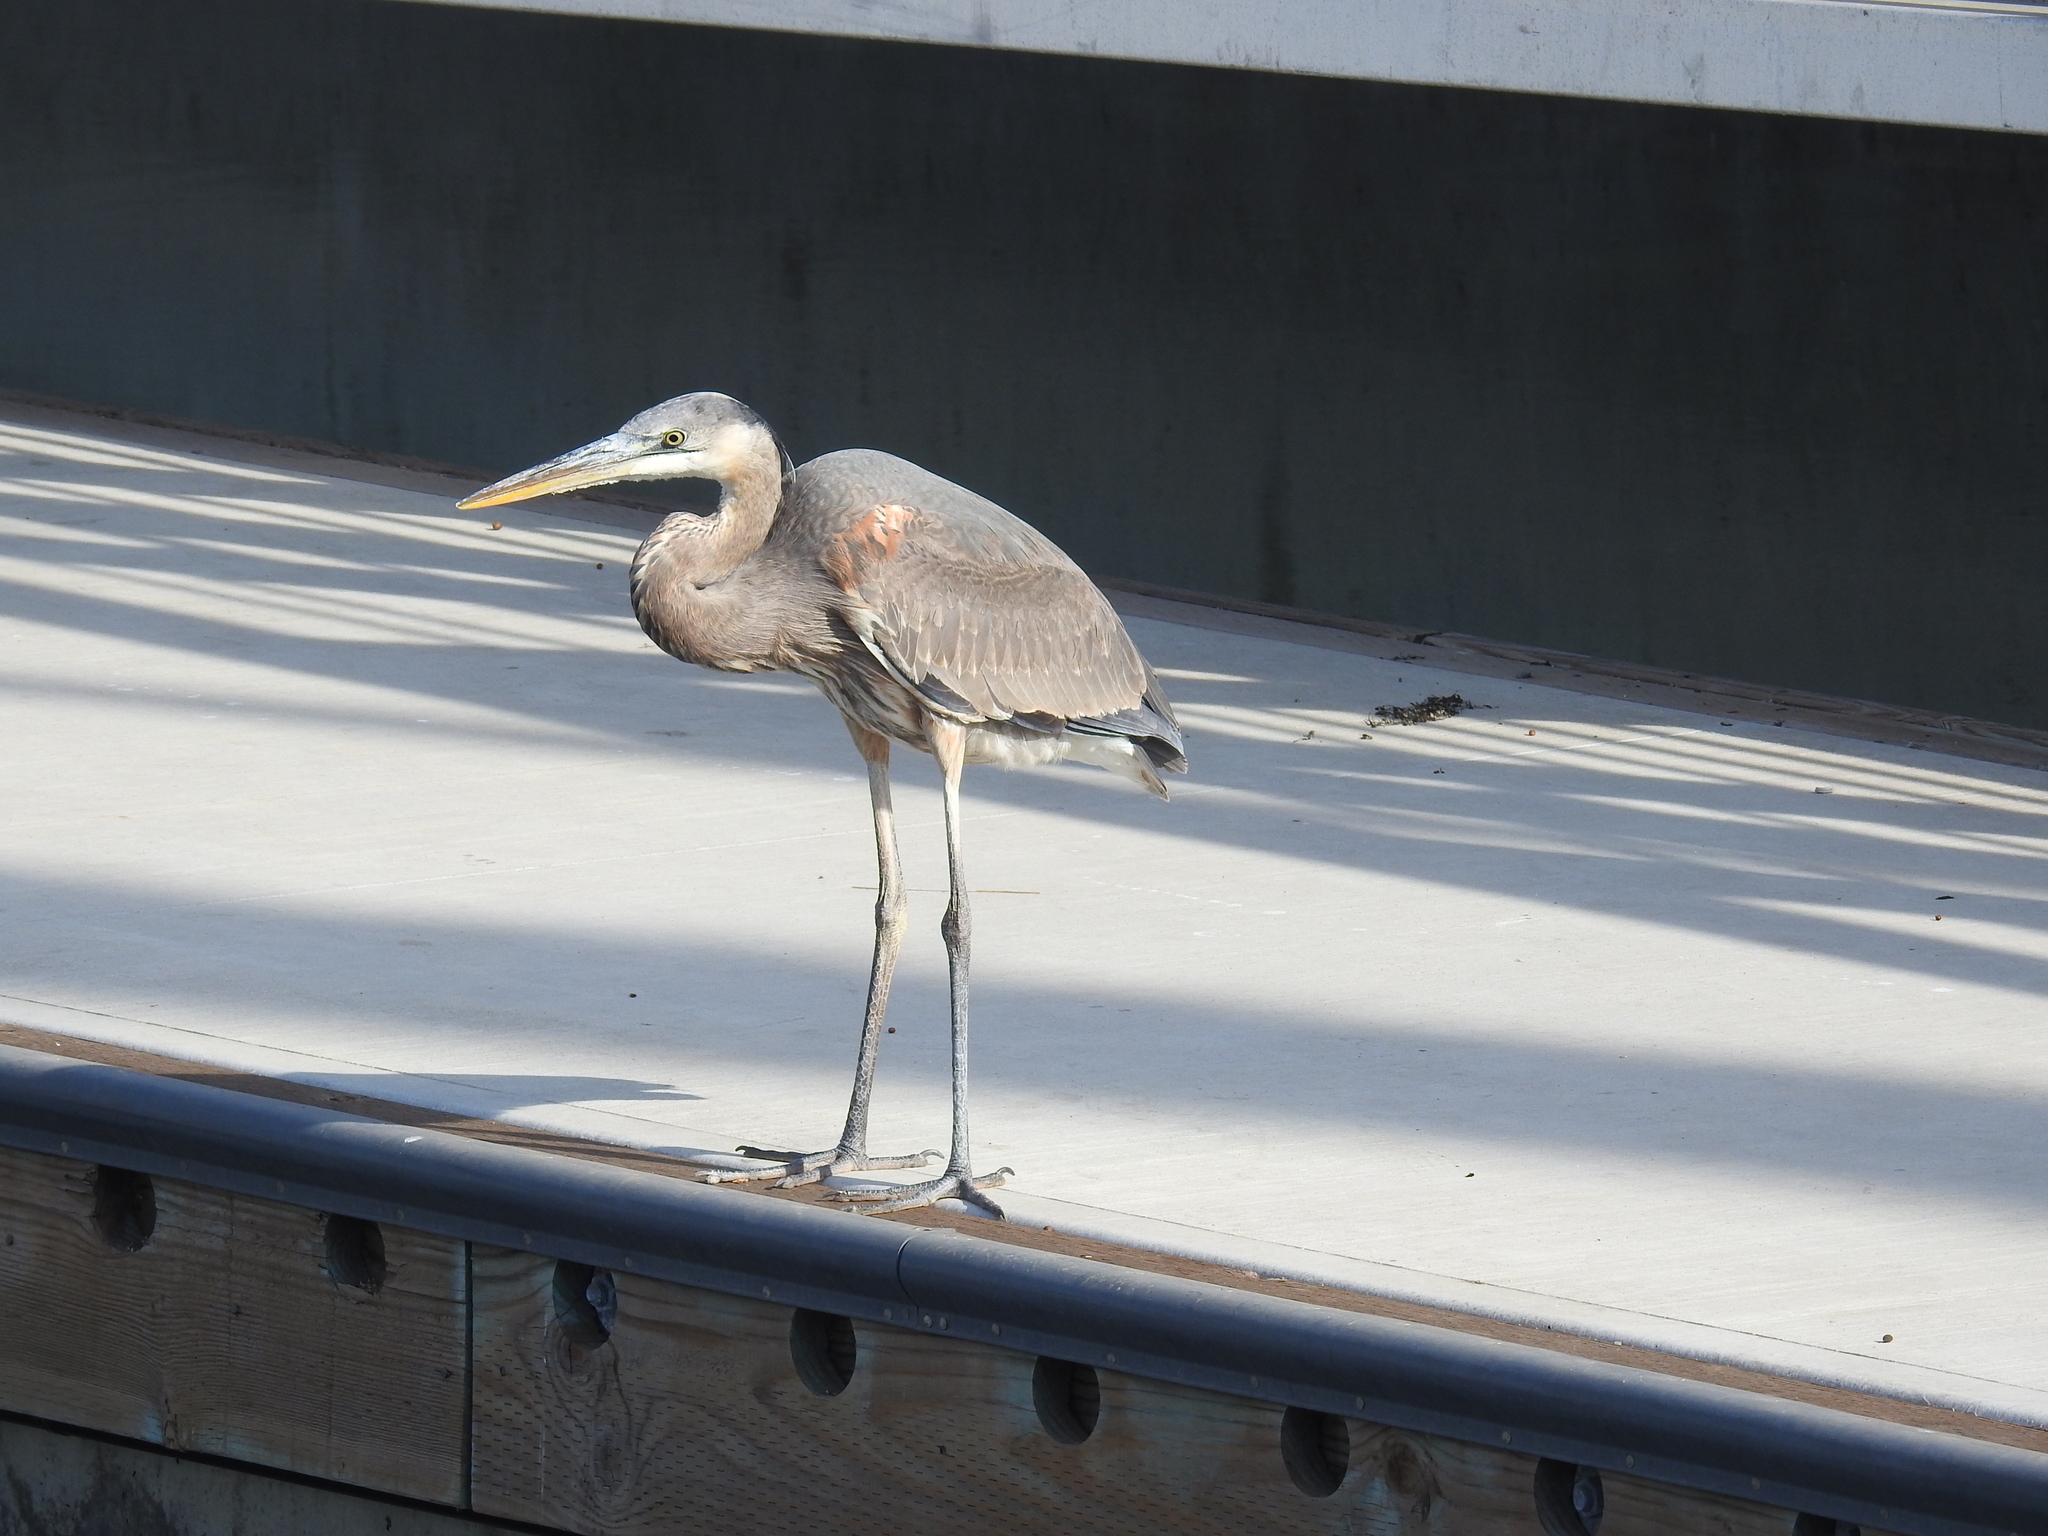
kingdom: Animalia
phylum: Chordata
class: Aves
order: Pelecaniformes
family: Ardeidae
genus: Ardea
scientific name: Ardea herodias
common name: Great blue heron
